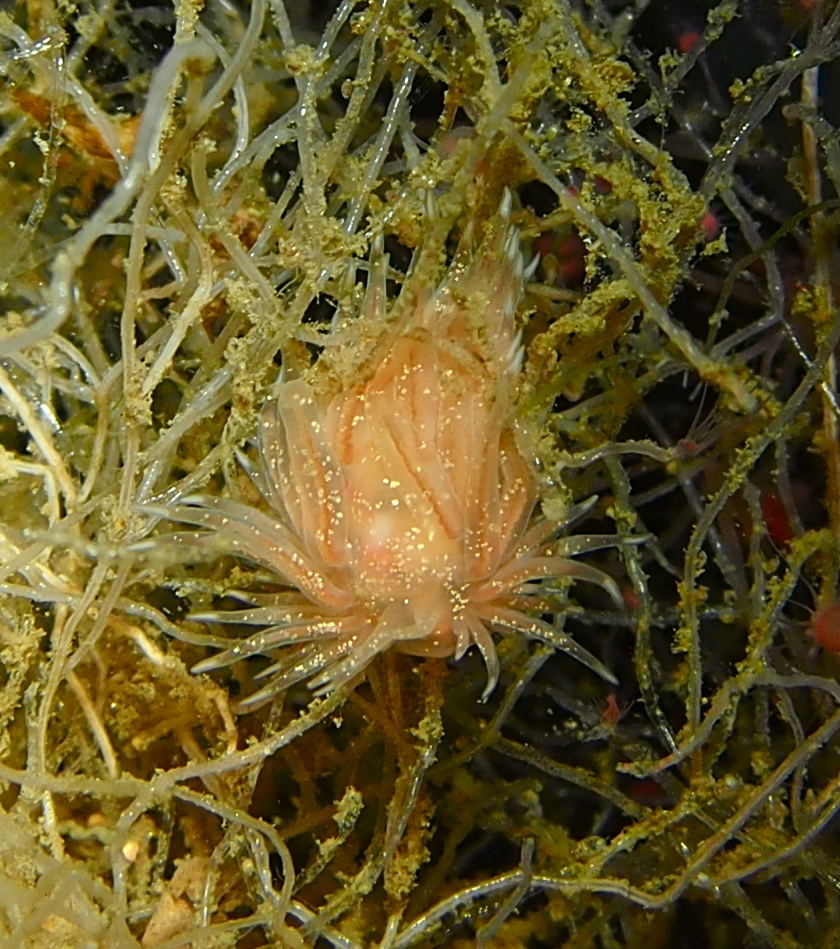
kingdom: Animalia
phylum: Mollusca
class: Gastropoda
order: Nudibranchia
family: Cumanotidae
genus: Cumanotus
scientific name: Cumanotus beaumonti
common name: Polyp aeolis
